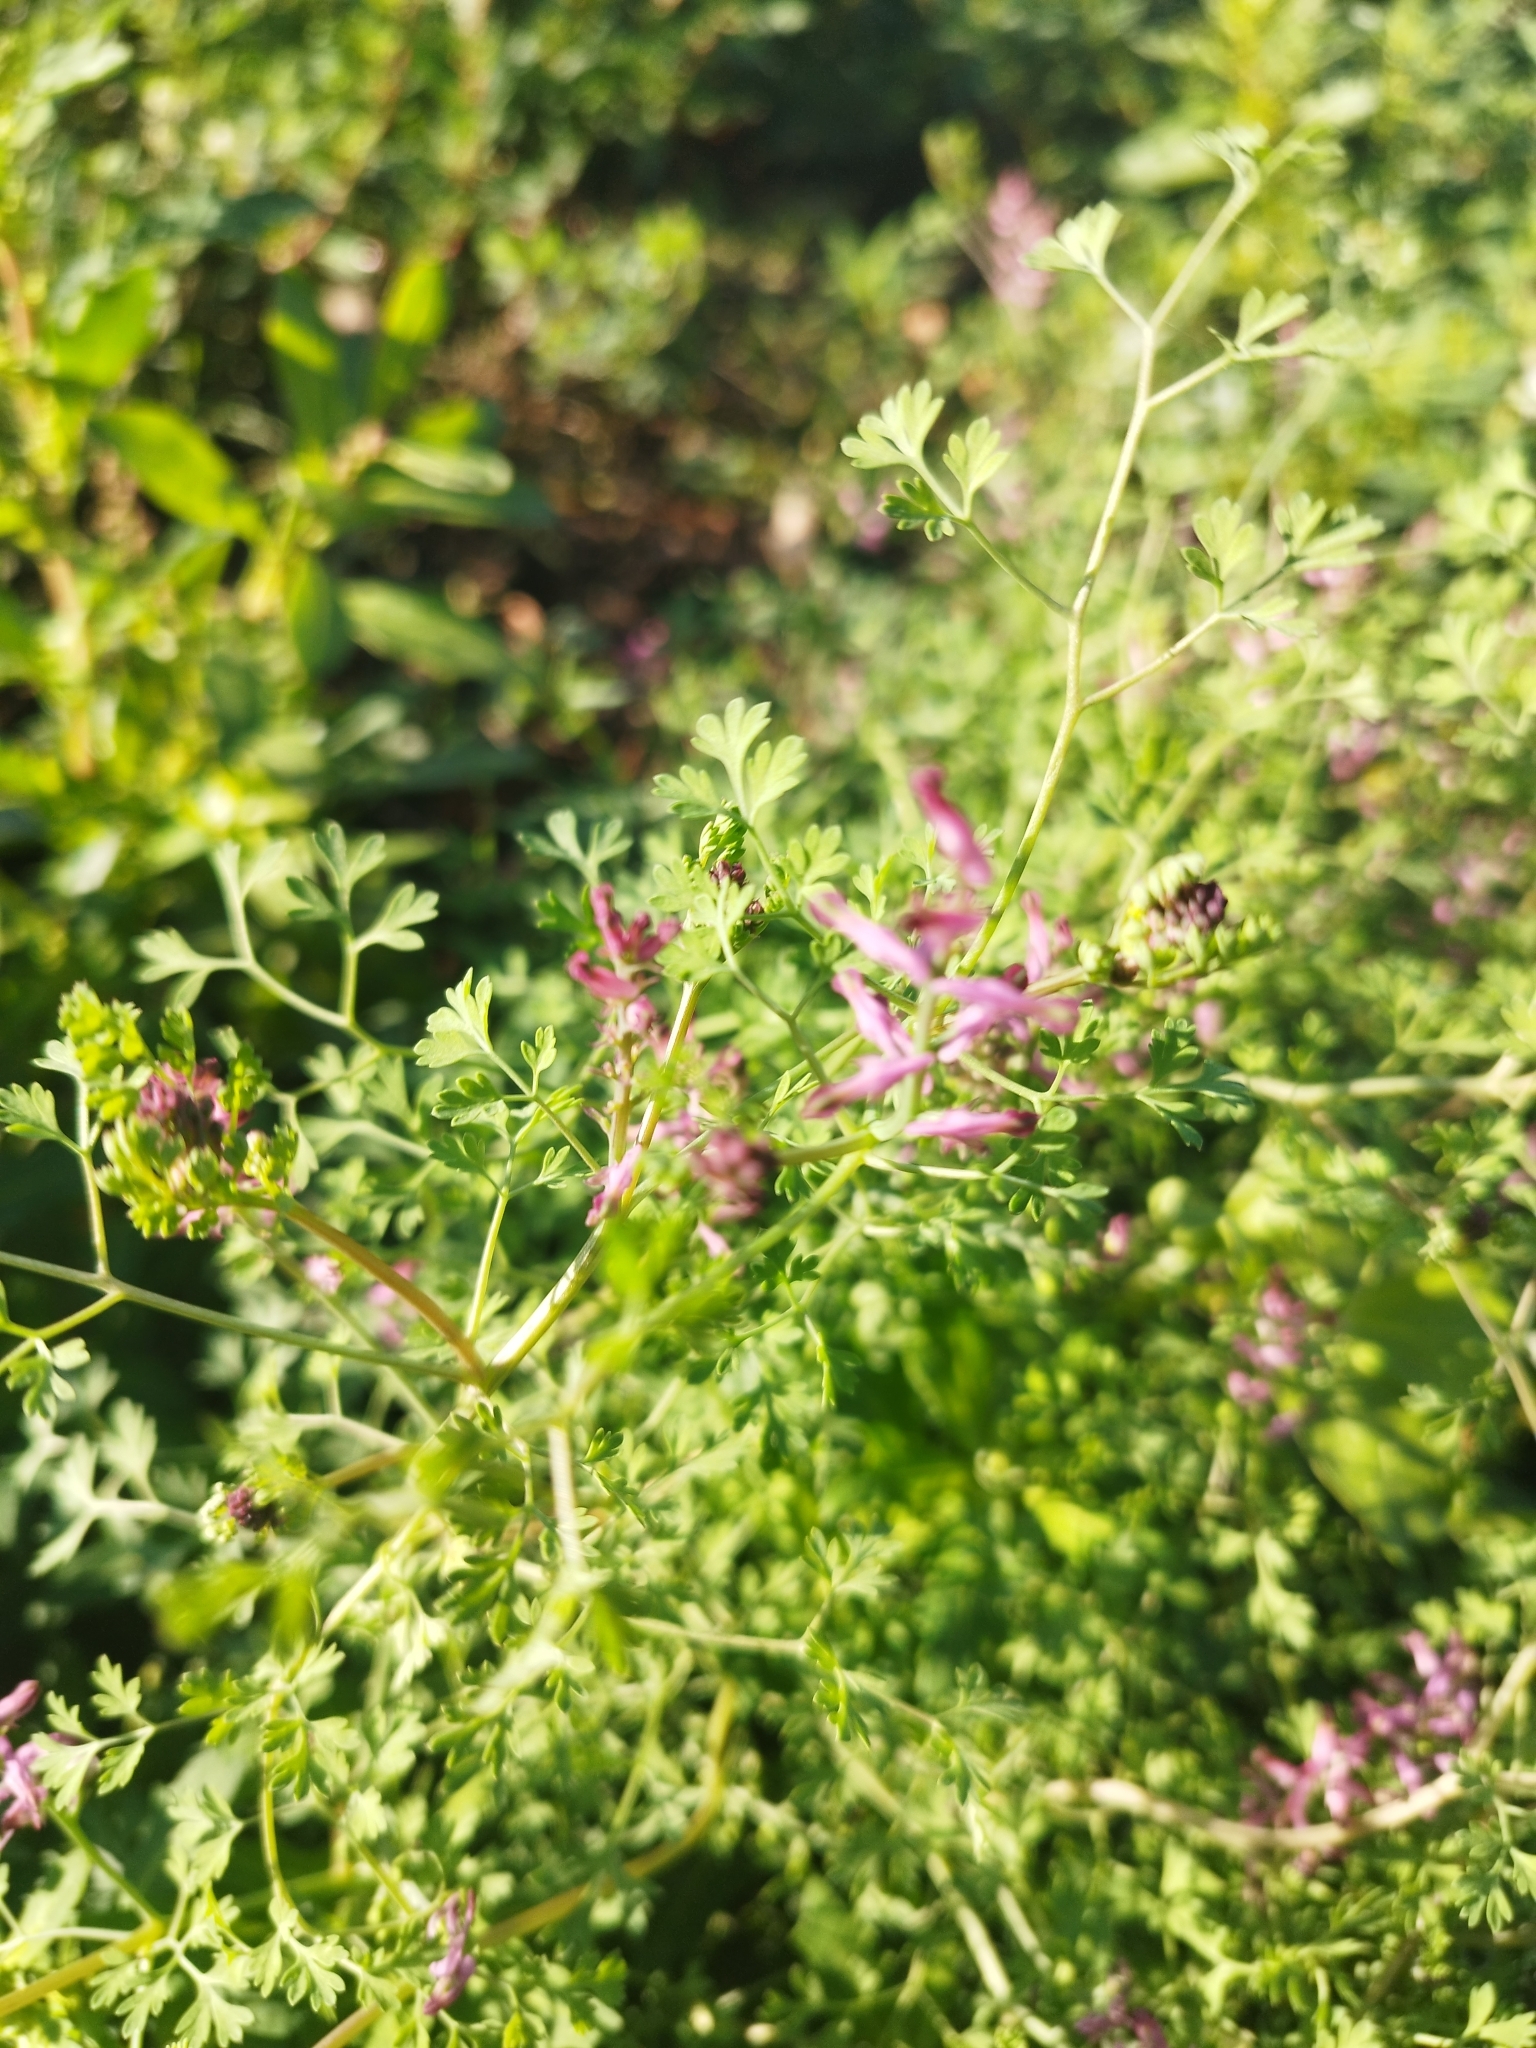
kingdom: Plantae
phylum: Tracheophyta
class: Magnoliopsida
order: Ranunculales
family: Papaveraceae
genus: Fumaria
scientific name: Fumaria officinalis
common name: Common fumitory
